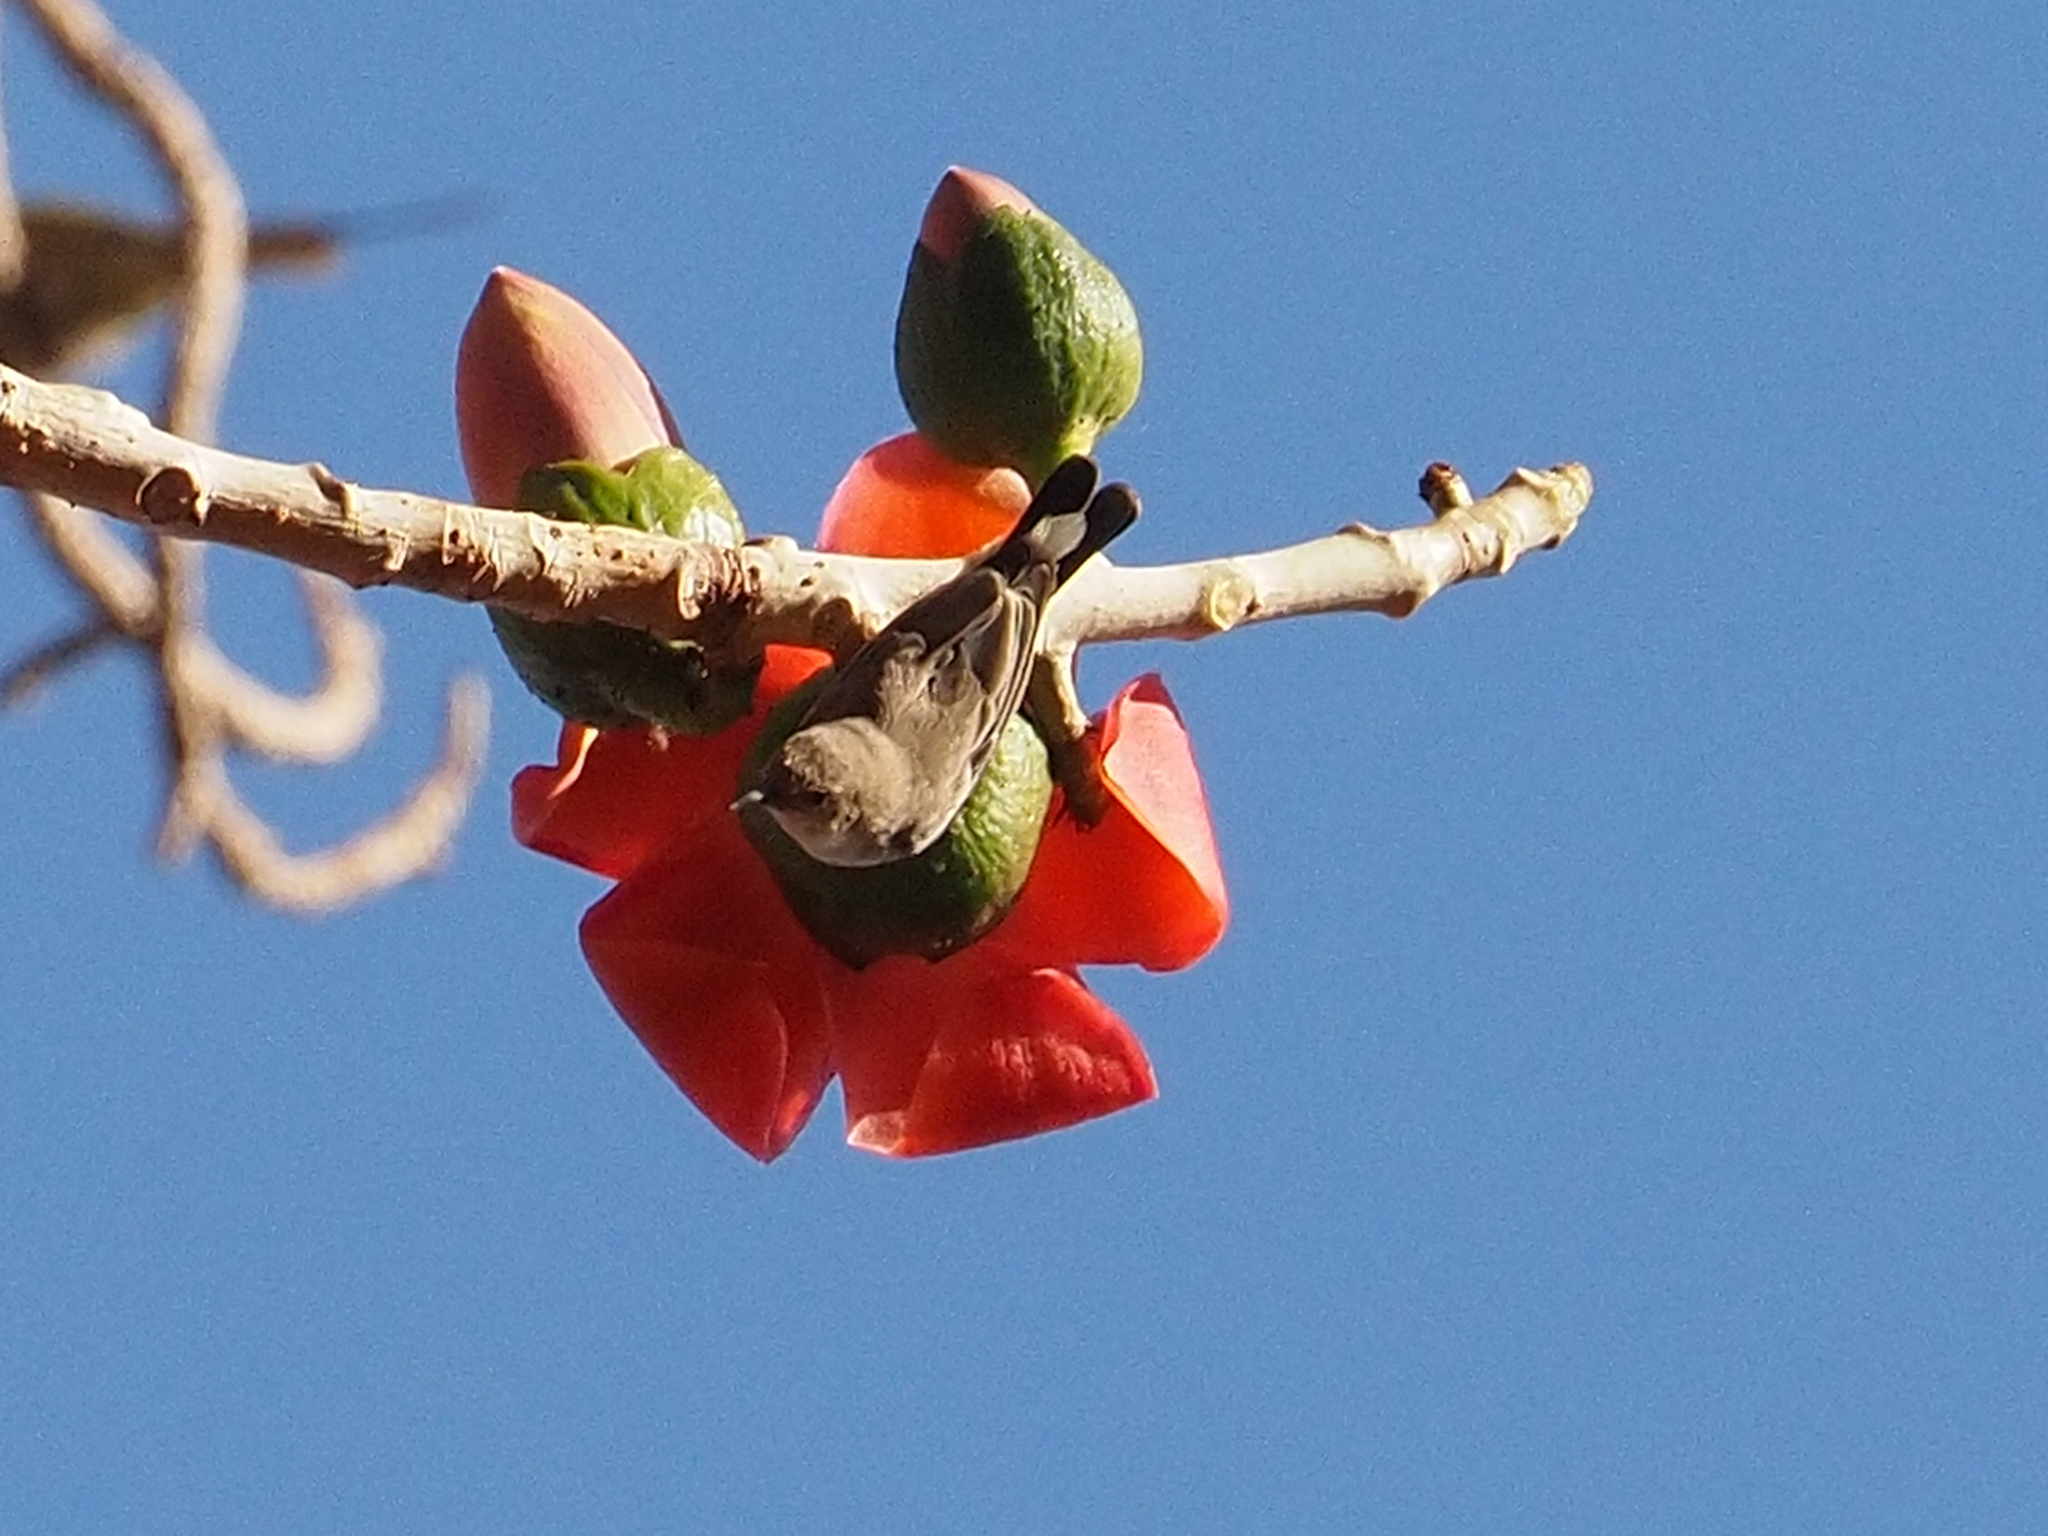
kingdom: Animalia
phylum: Chordata
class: Aves
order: Passeriformes
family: Nectariniidae
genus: Hedydipna
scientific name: Hedydipna metallica
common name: Nile valley sunbird
